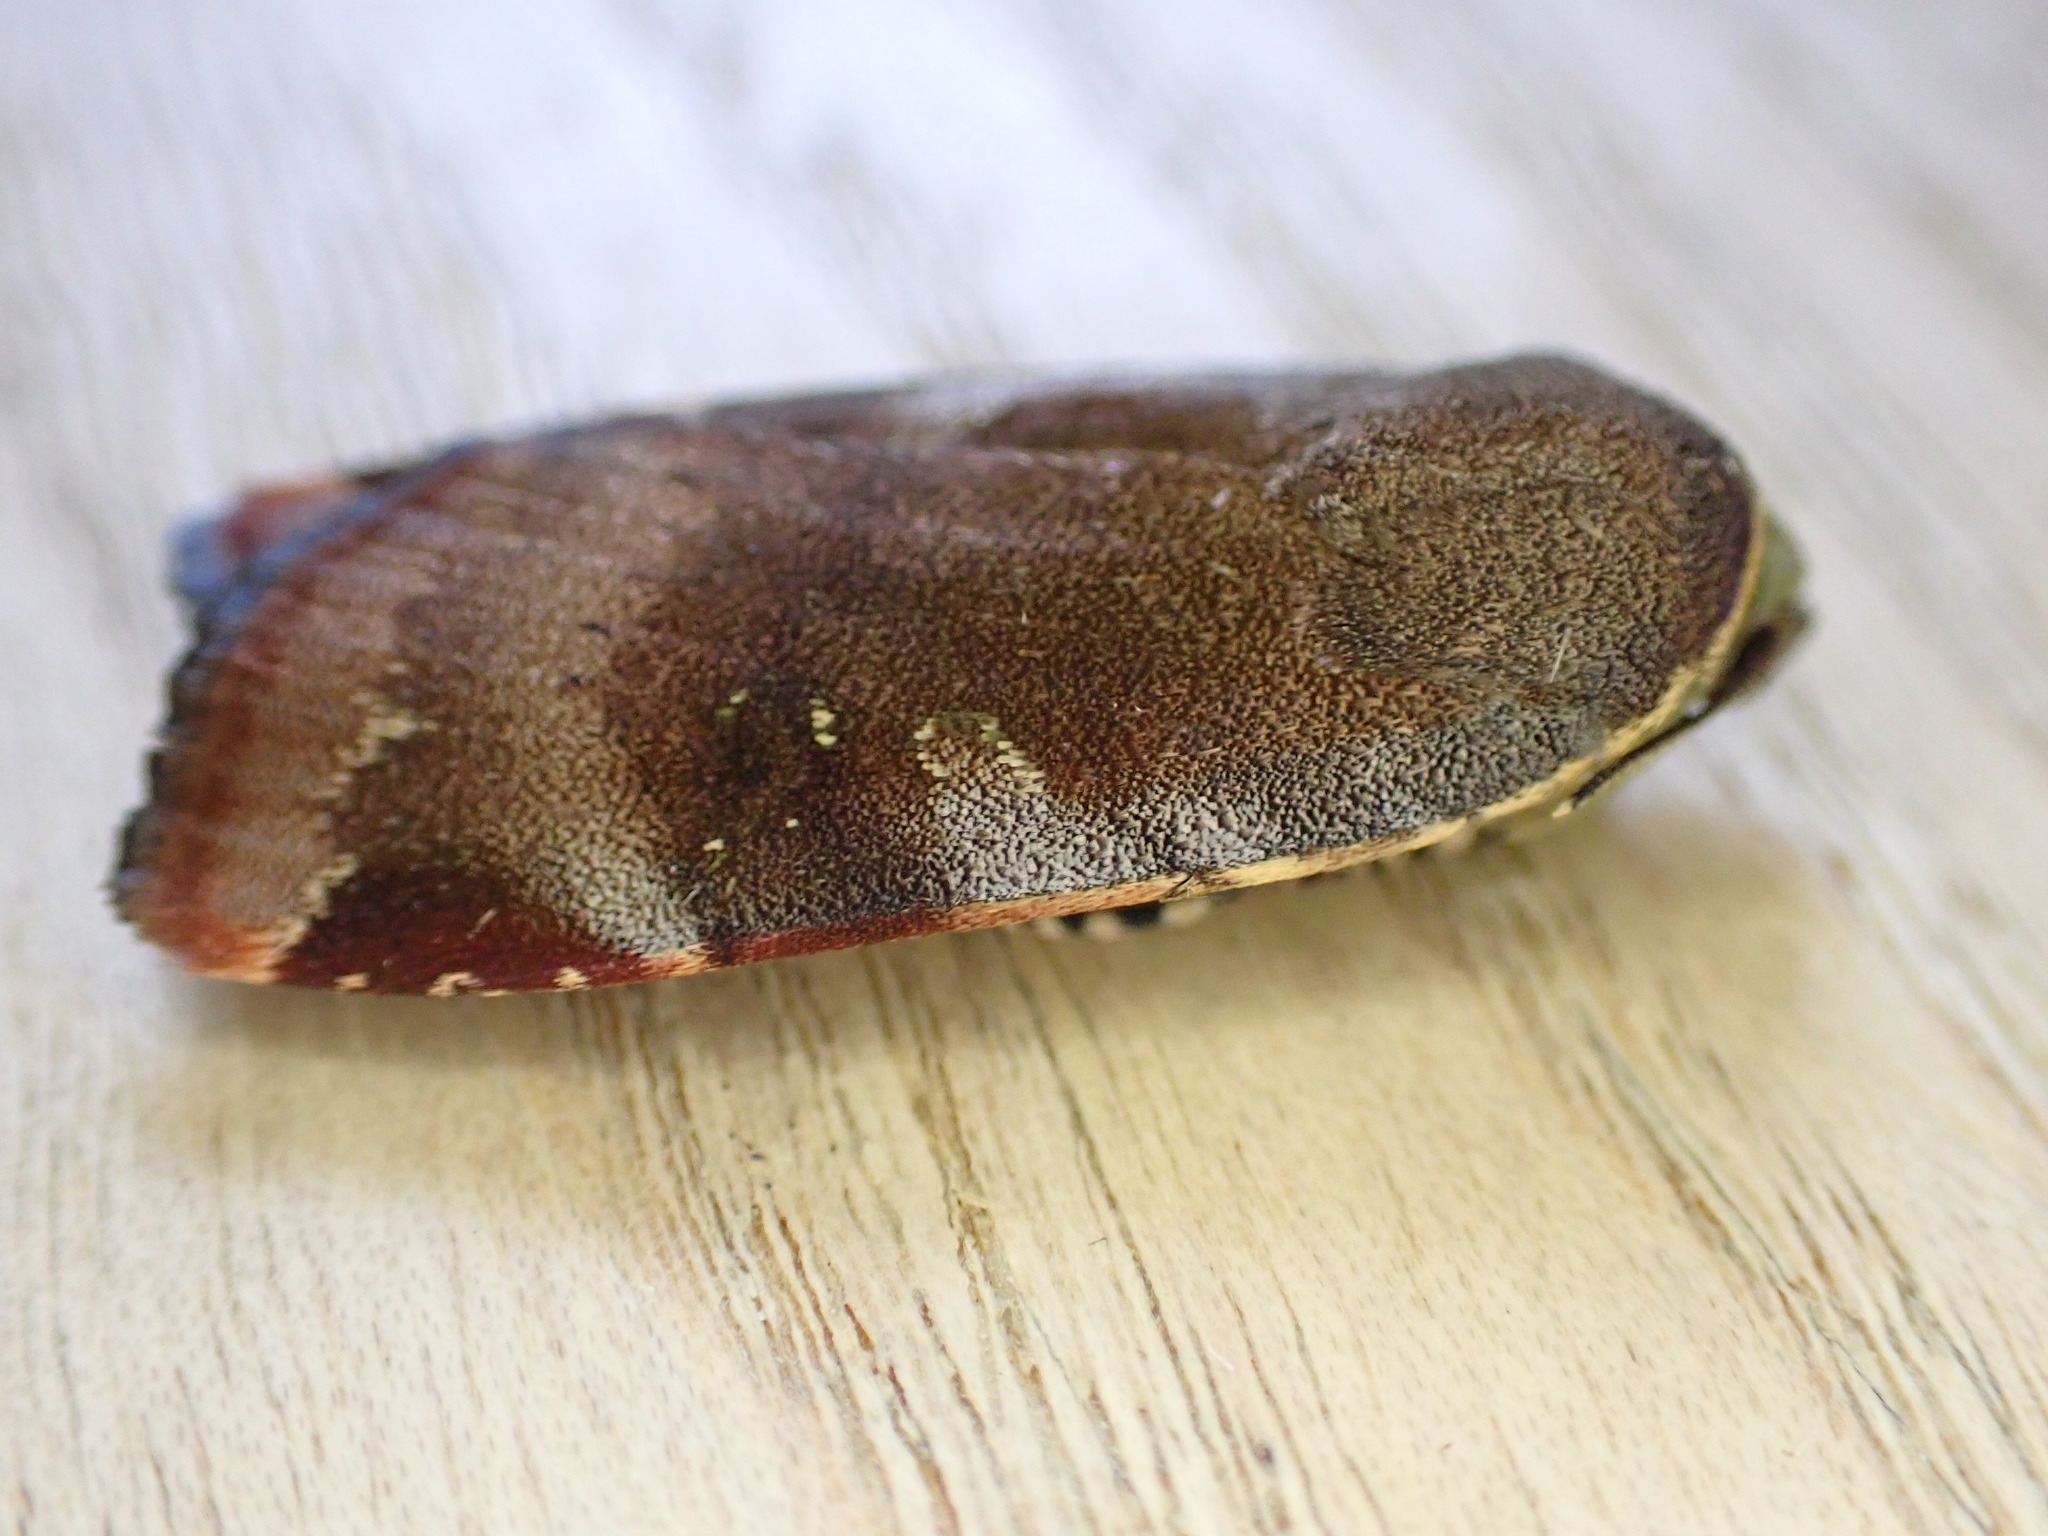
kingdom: Animalia
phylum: Arthropoda
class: Insecta
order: Lepidoptera
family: Noctuidae
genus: Noctua
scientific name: Noctua janthe
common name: Lesser broad-bordered yellow underwing
